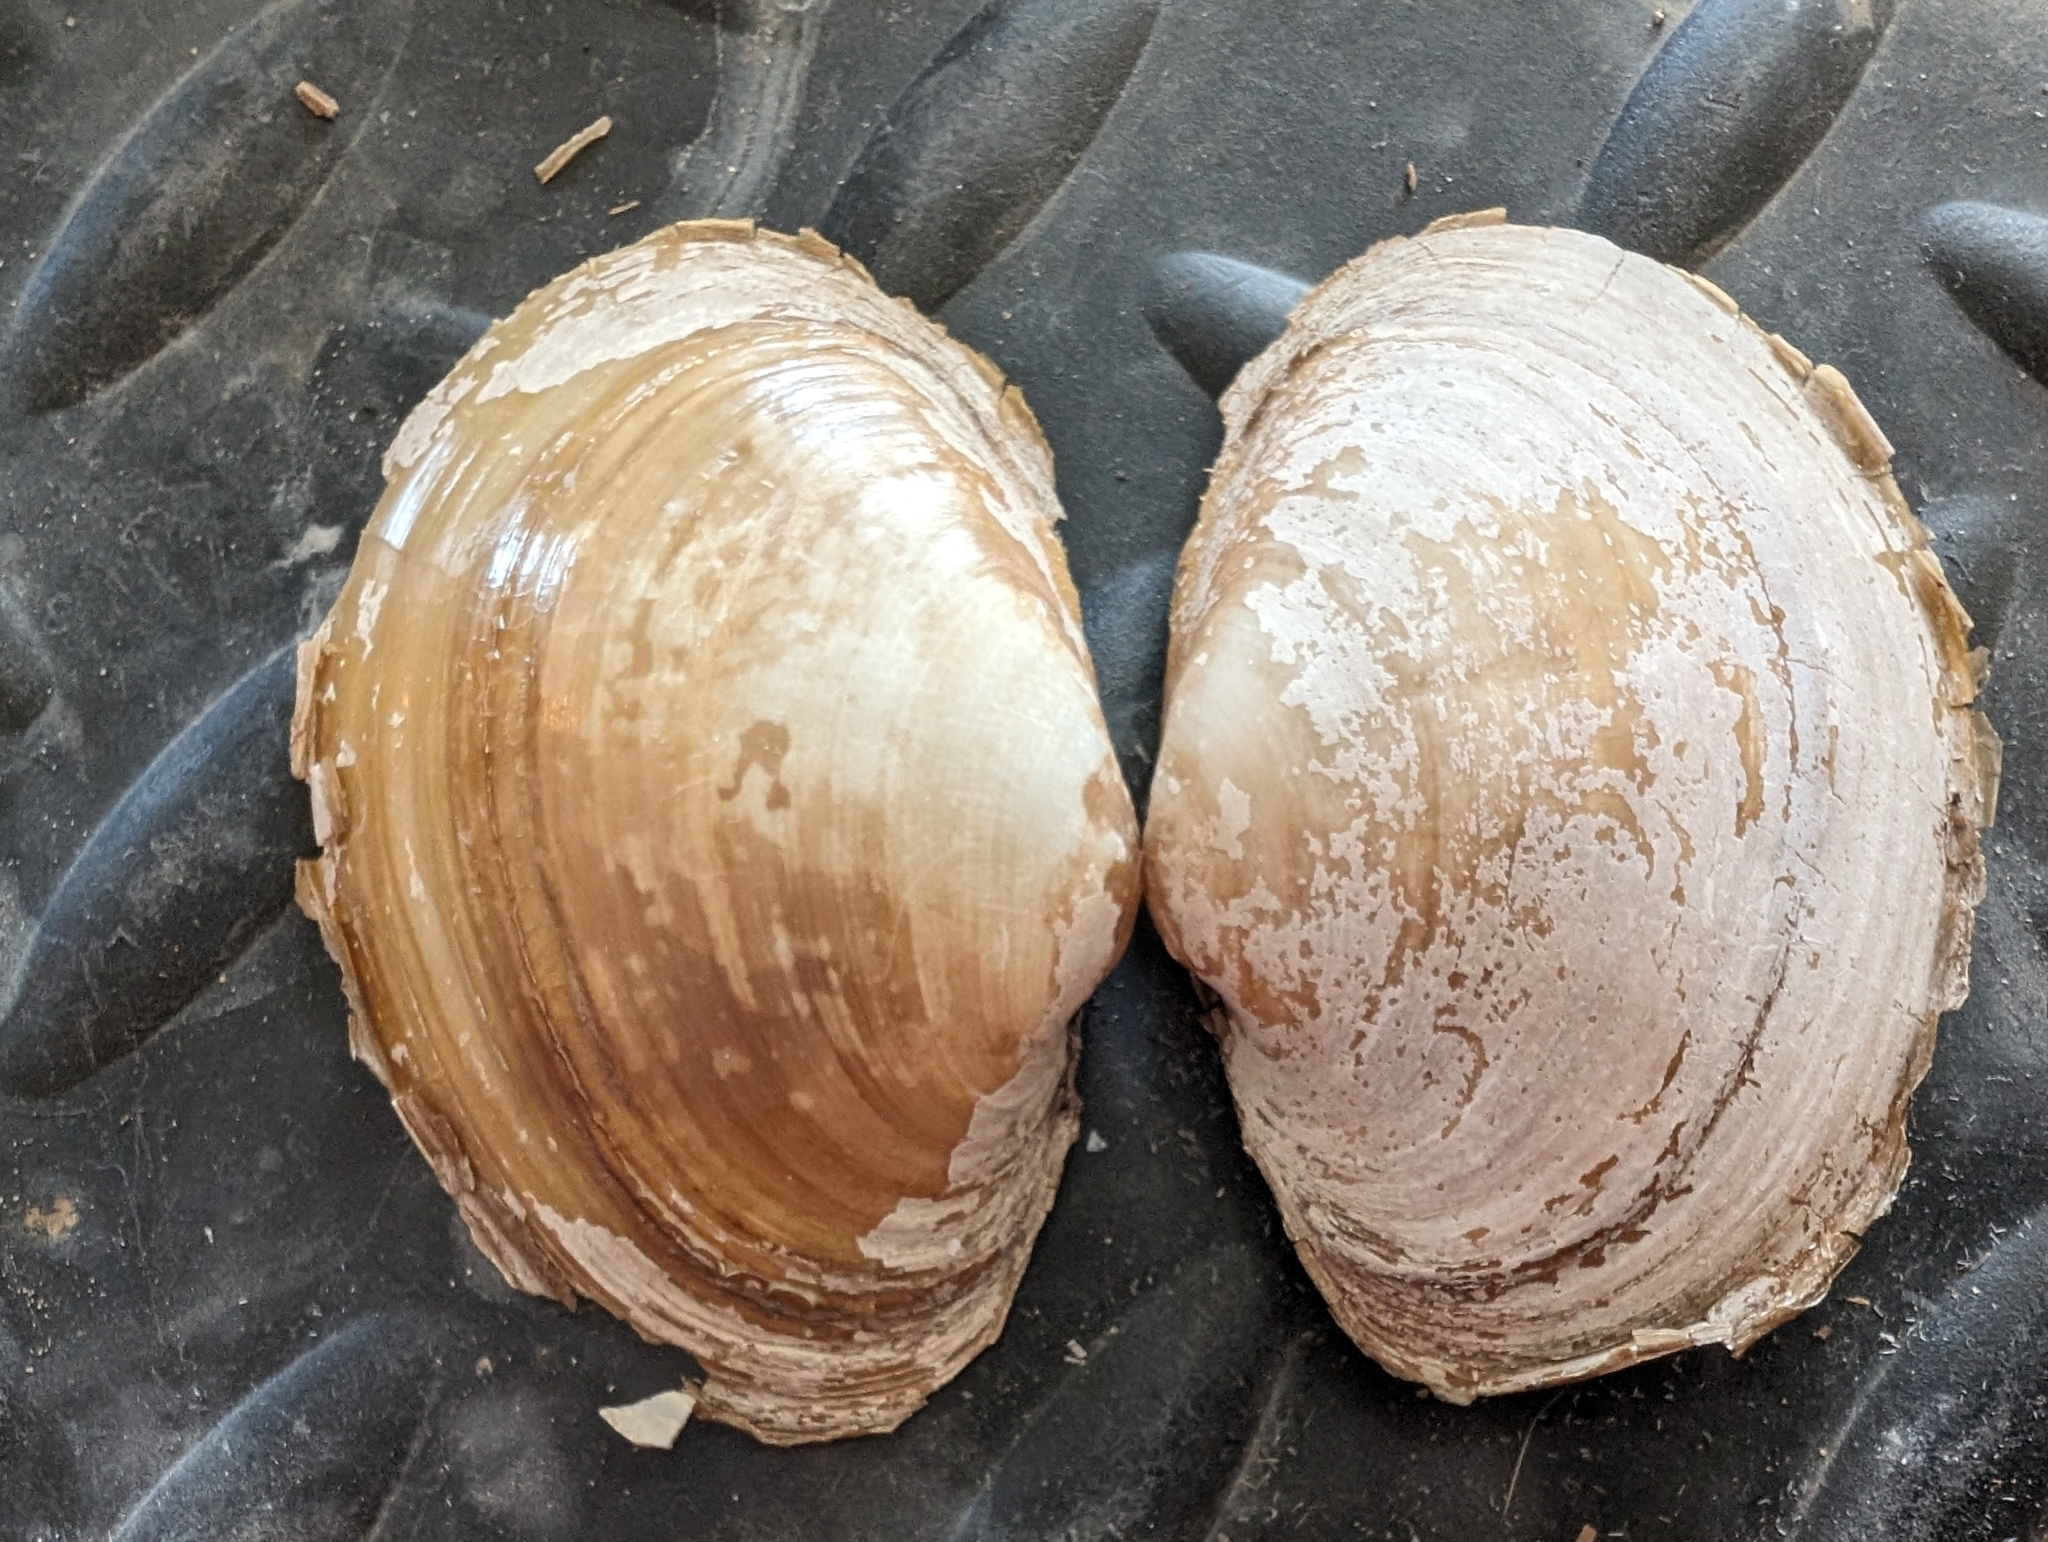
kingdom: Animalia
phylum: Mollusca
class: Bivalvia
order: Unionida
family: Unionidae
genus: Lampsilis
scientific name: Lampsilis cardium
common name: Plain pocketbook
